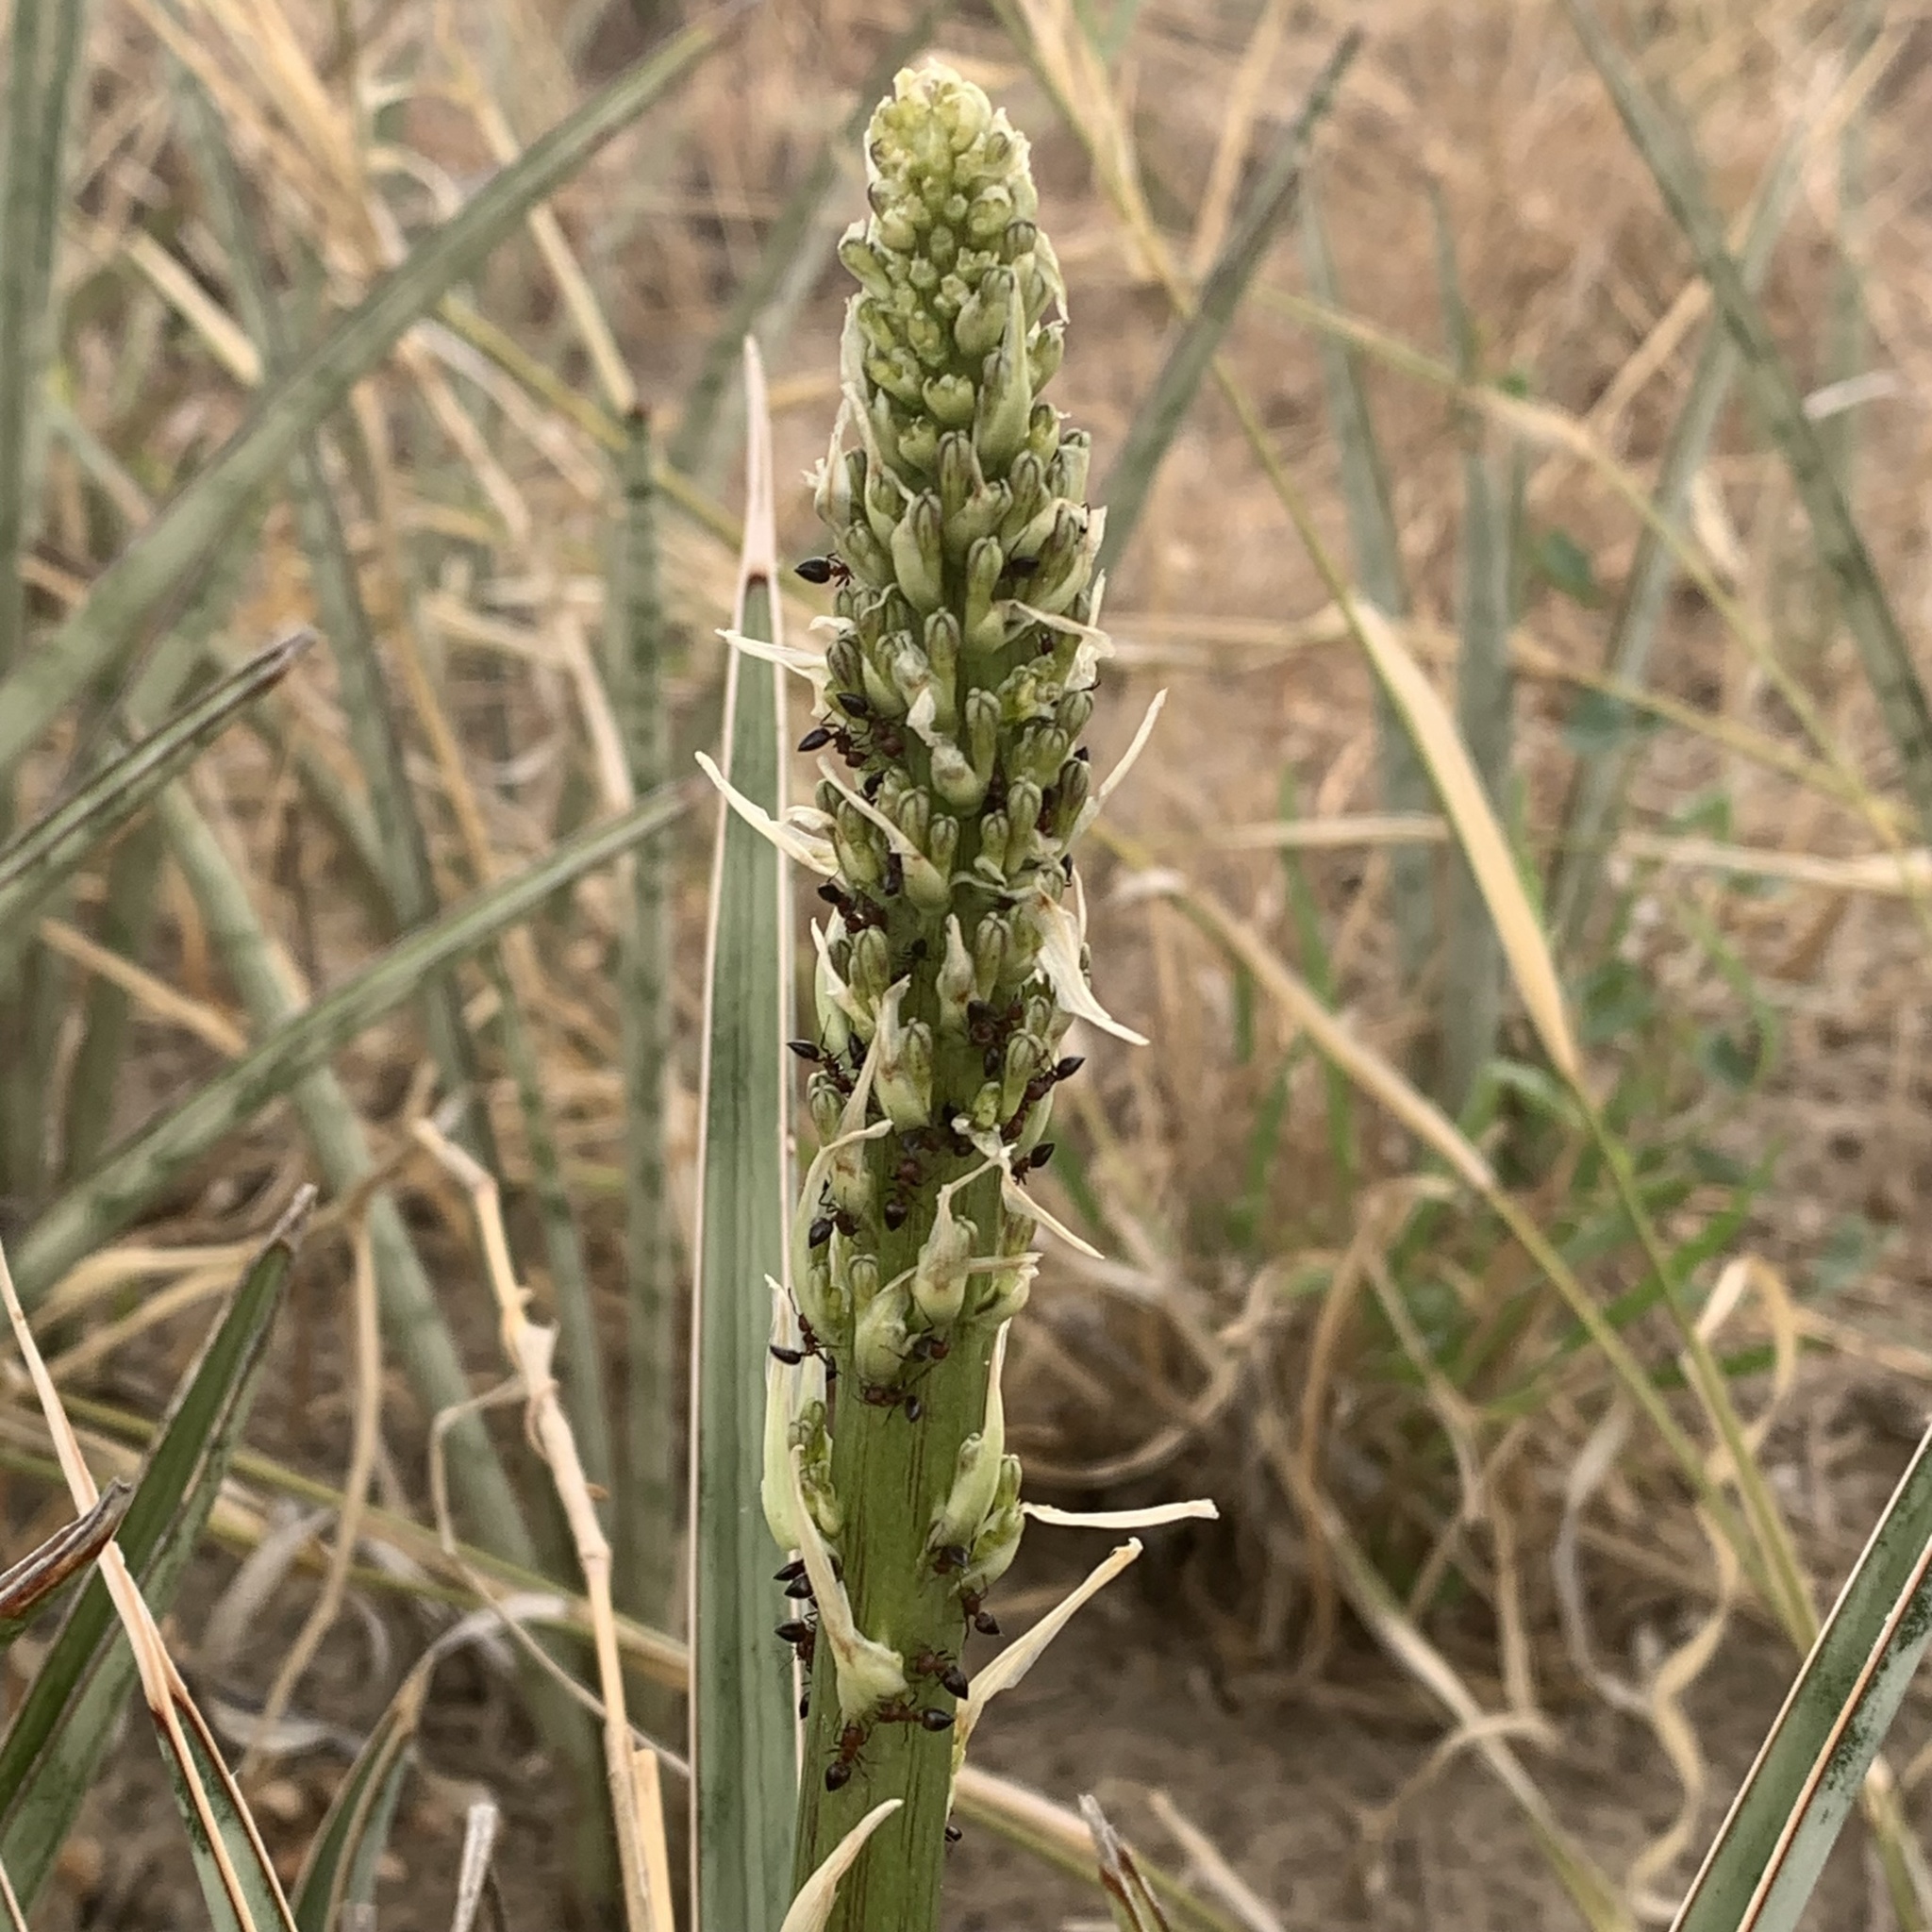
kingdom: Plantae
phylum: Tracheophyta
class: Liliopsida
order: Asparagales
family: Asparagaceae
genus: Dracaena
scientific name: Dracaena aethiopica
